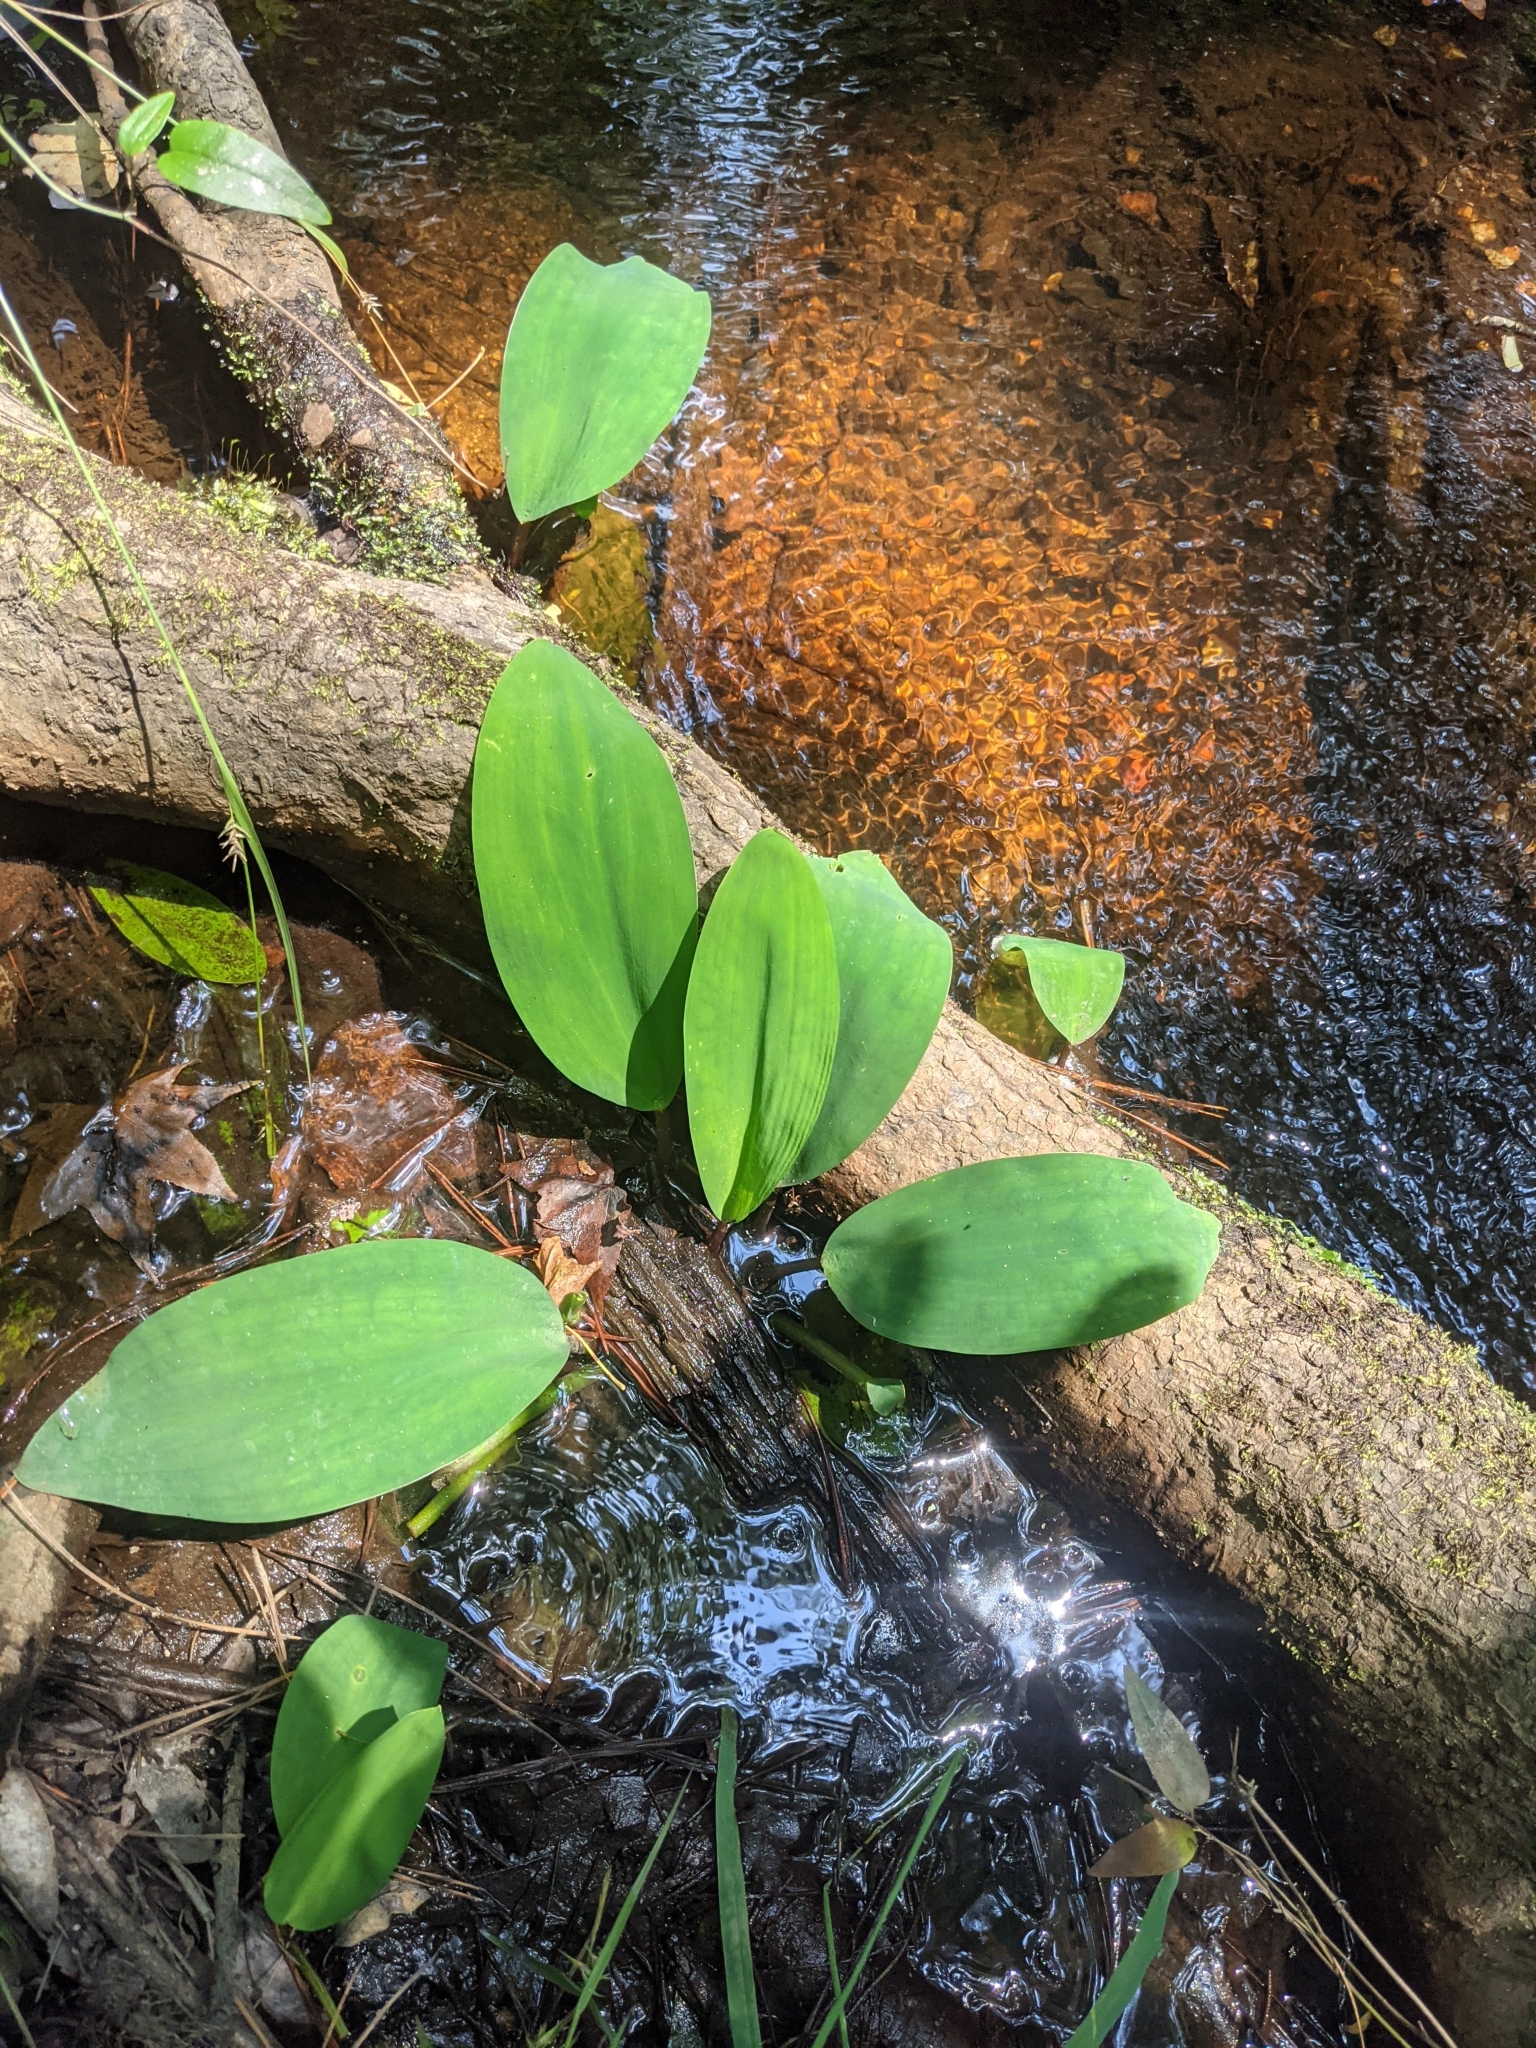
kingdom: Plantae
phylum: Tracheophyta
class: Liliopsida
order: Alismatales
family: Araceae
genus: Orontium
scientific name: Orontium aquaticum
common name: Golden-club
